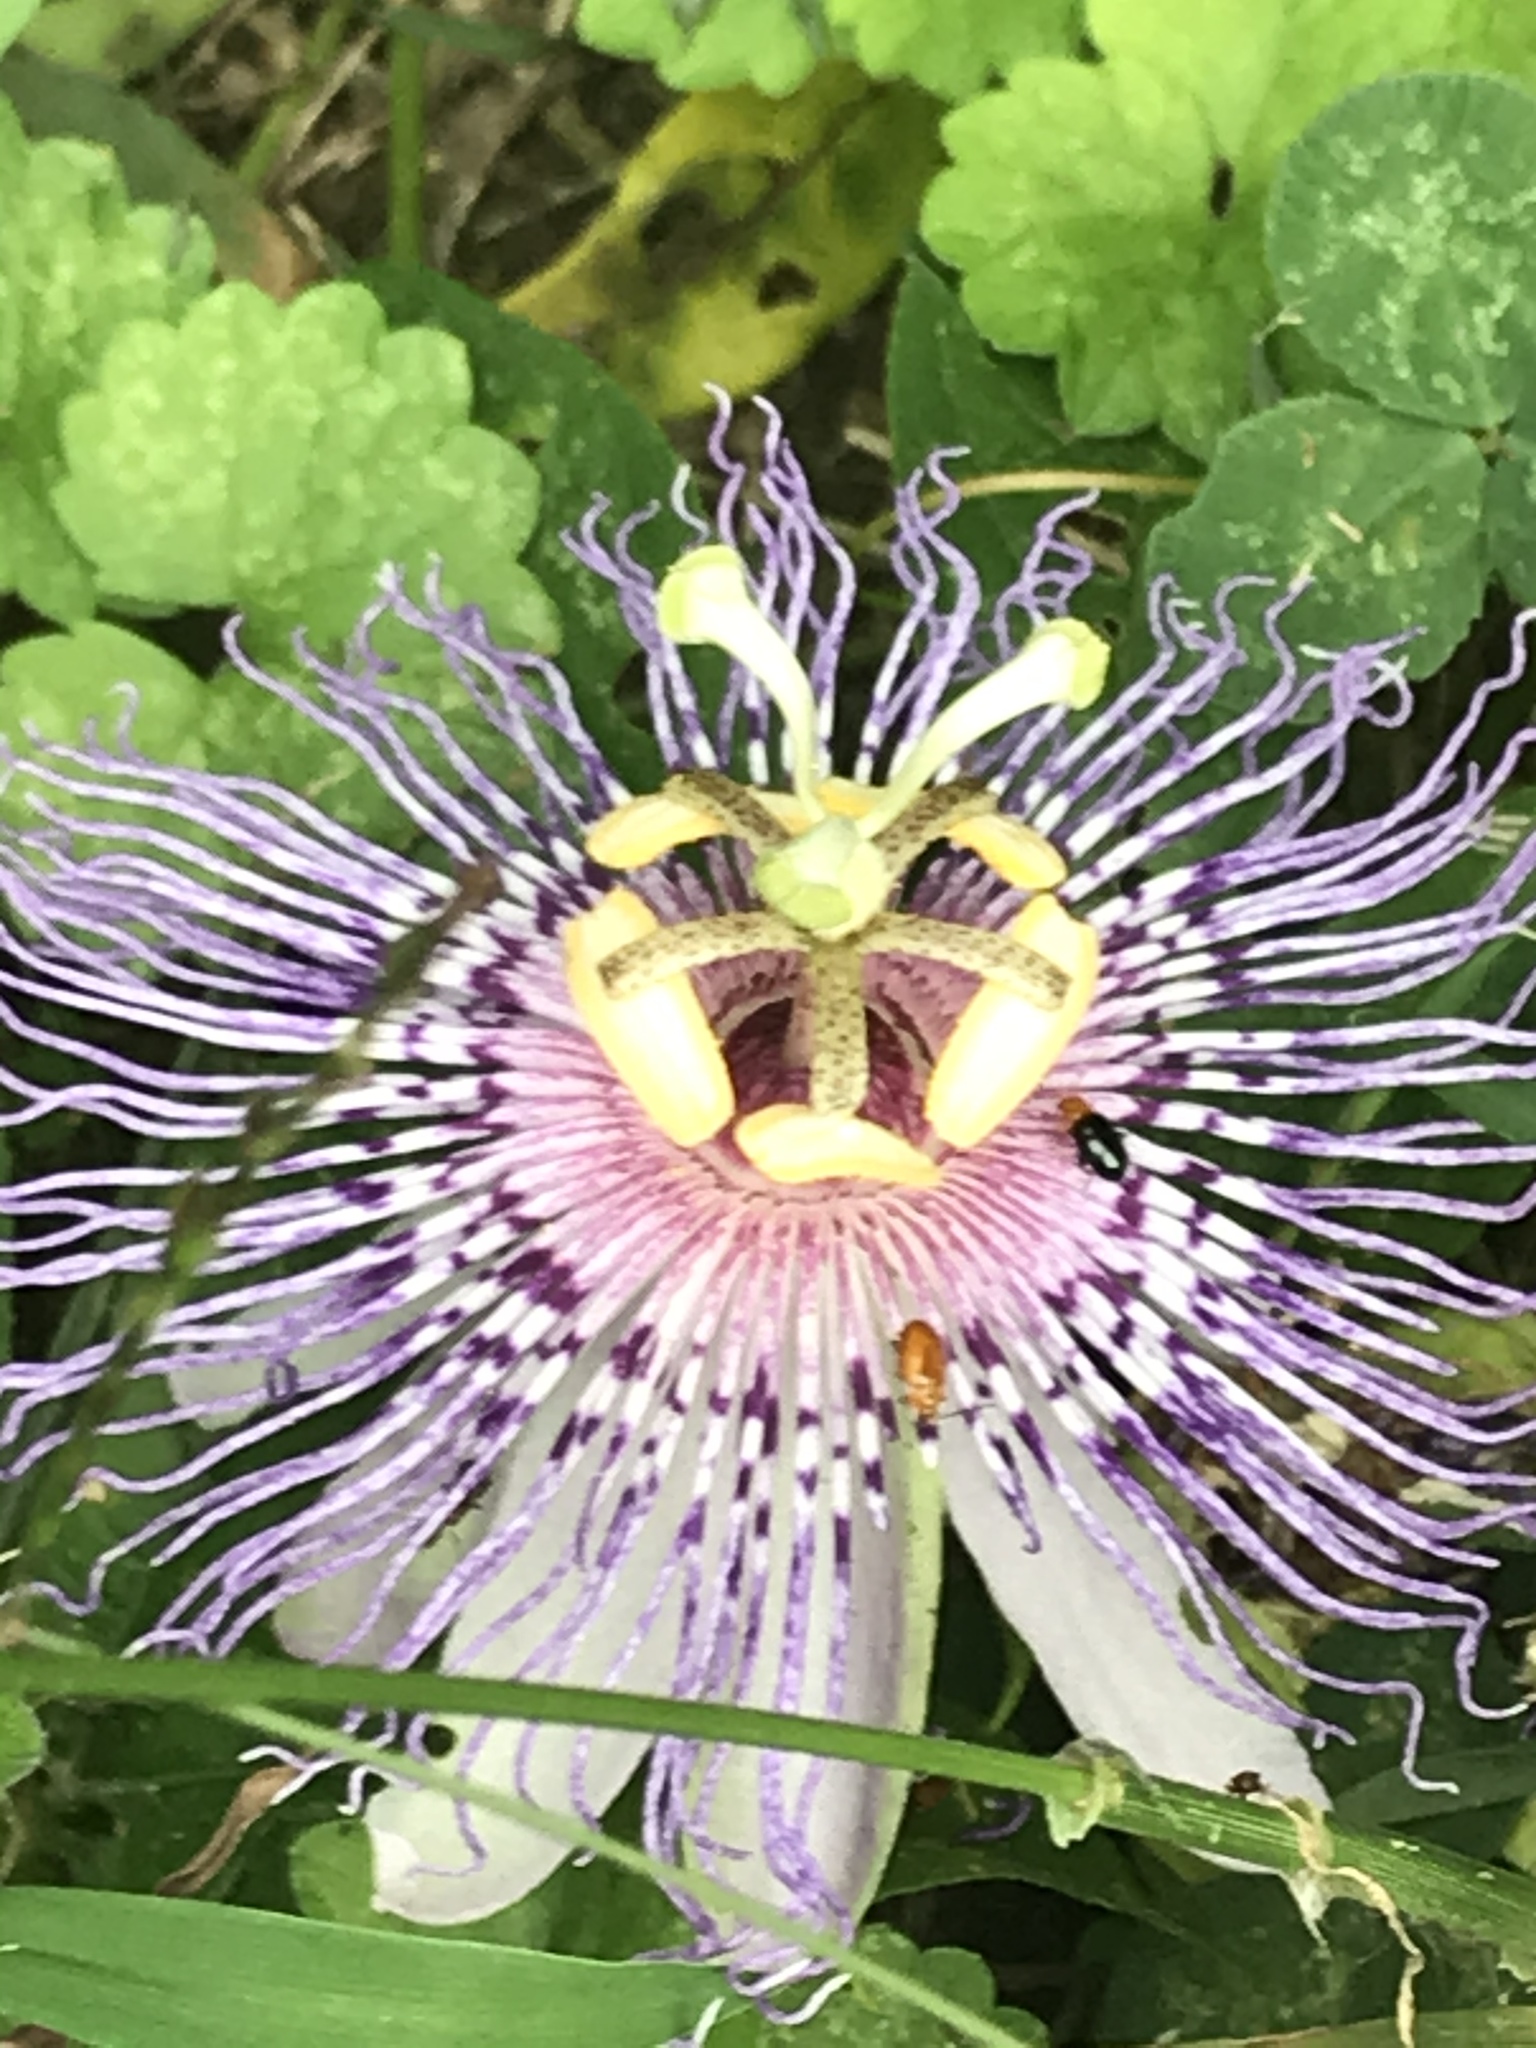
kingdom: Plantae
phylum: Tracheophyta
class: Magnoliopsida
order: Malpighiales
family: Passifloraceae
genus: Passiflora
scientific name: Passiflora incarnata
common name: Apricot-vine
